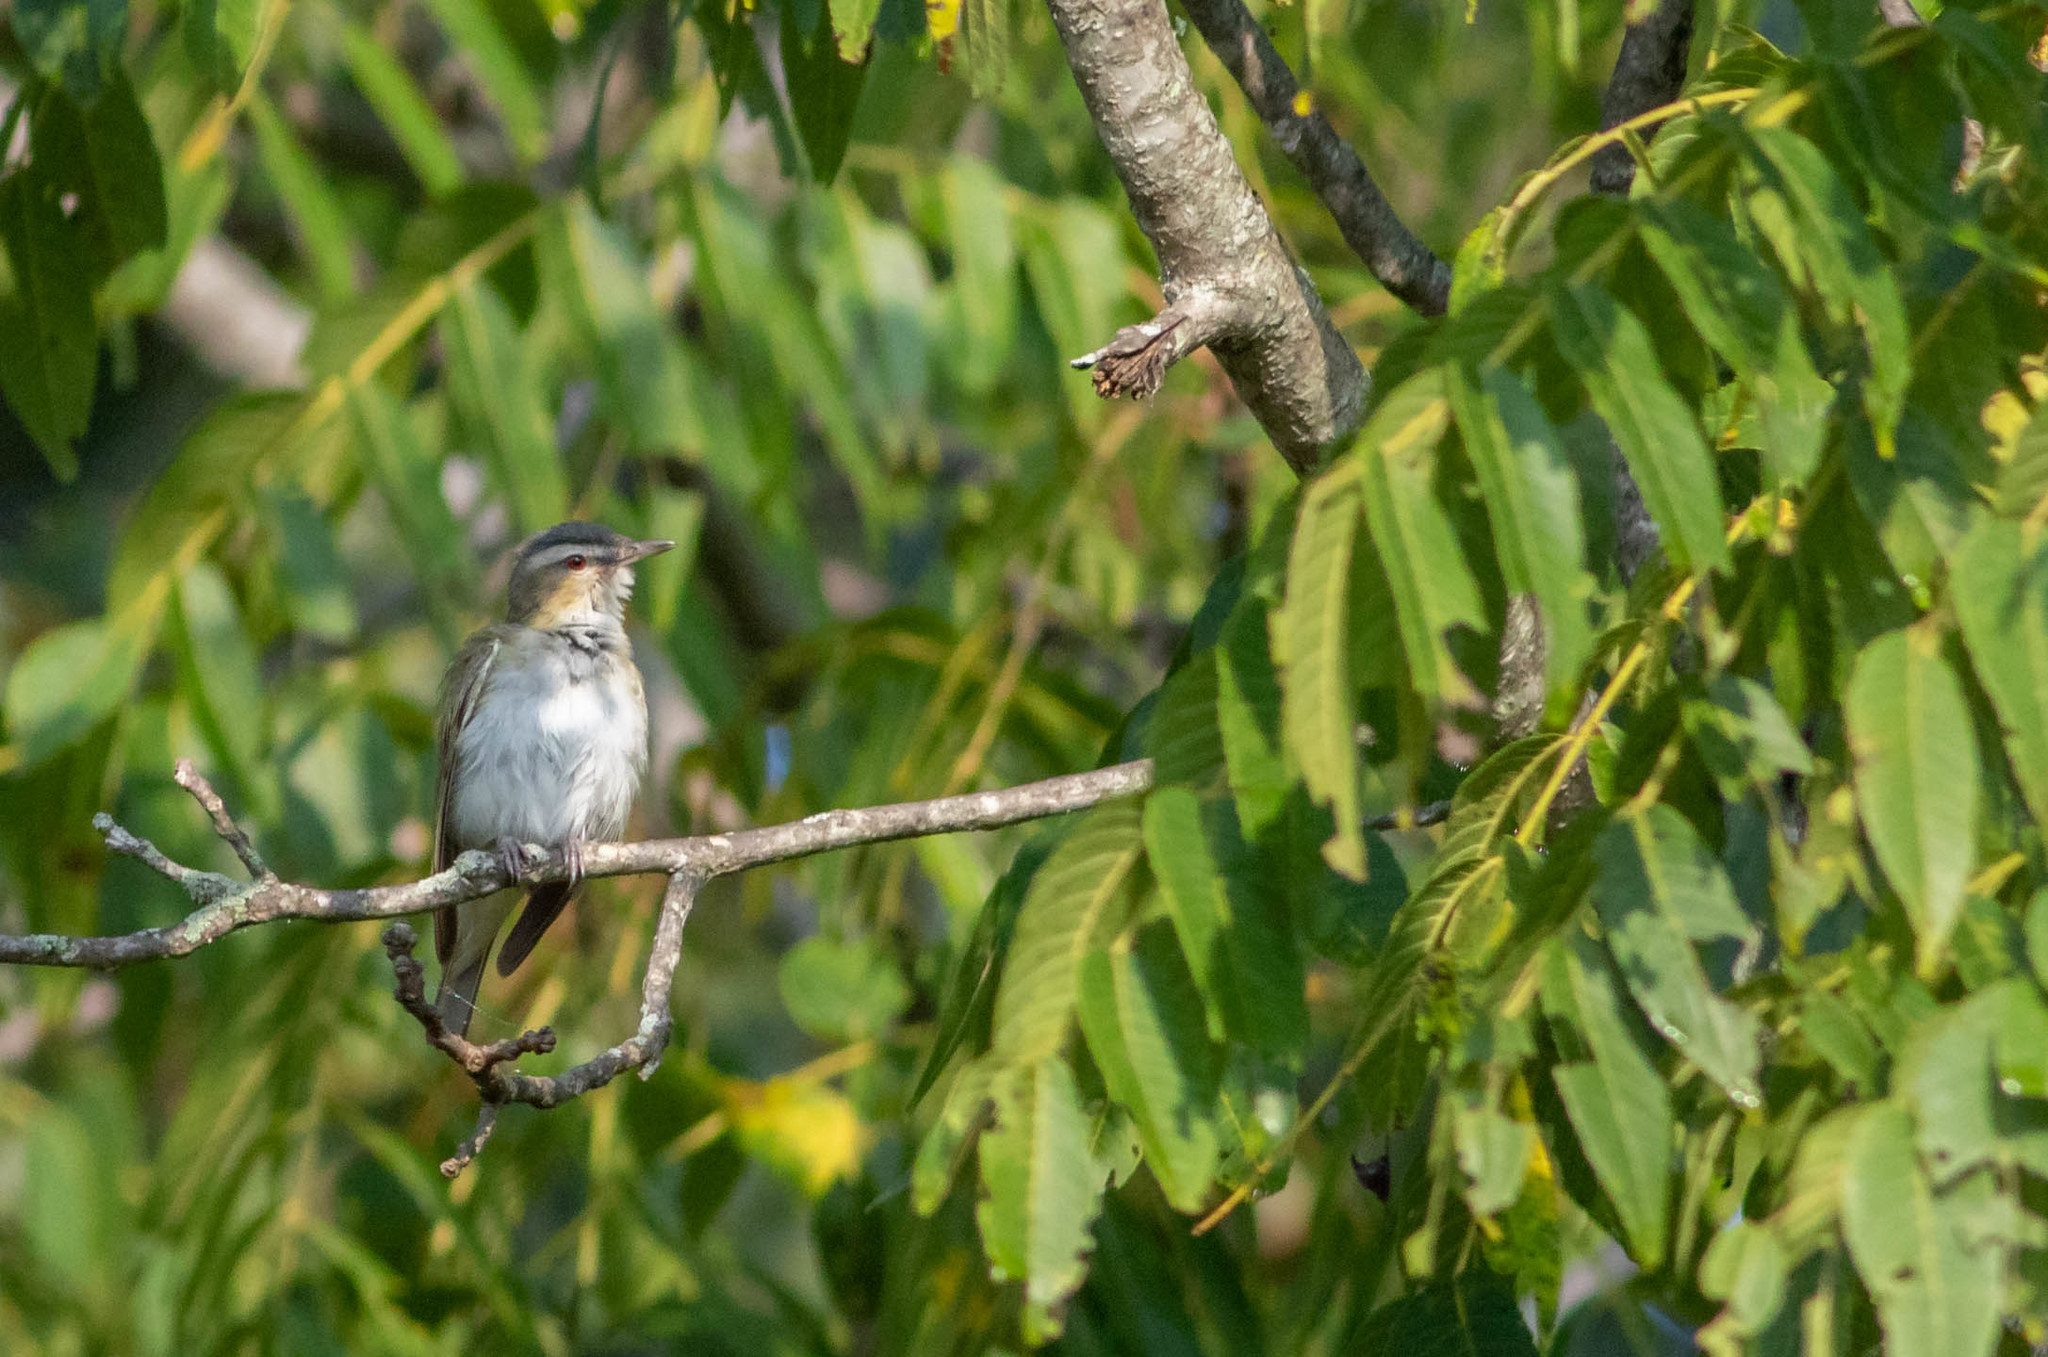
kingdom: Animalia
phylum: Chordata
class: Aves
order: Passeriformes
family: Vireonidae
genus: Vireo
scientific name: Vireo olivaceus
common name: Red-eyed vireo
